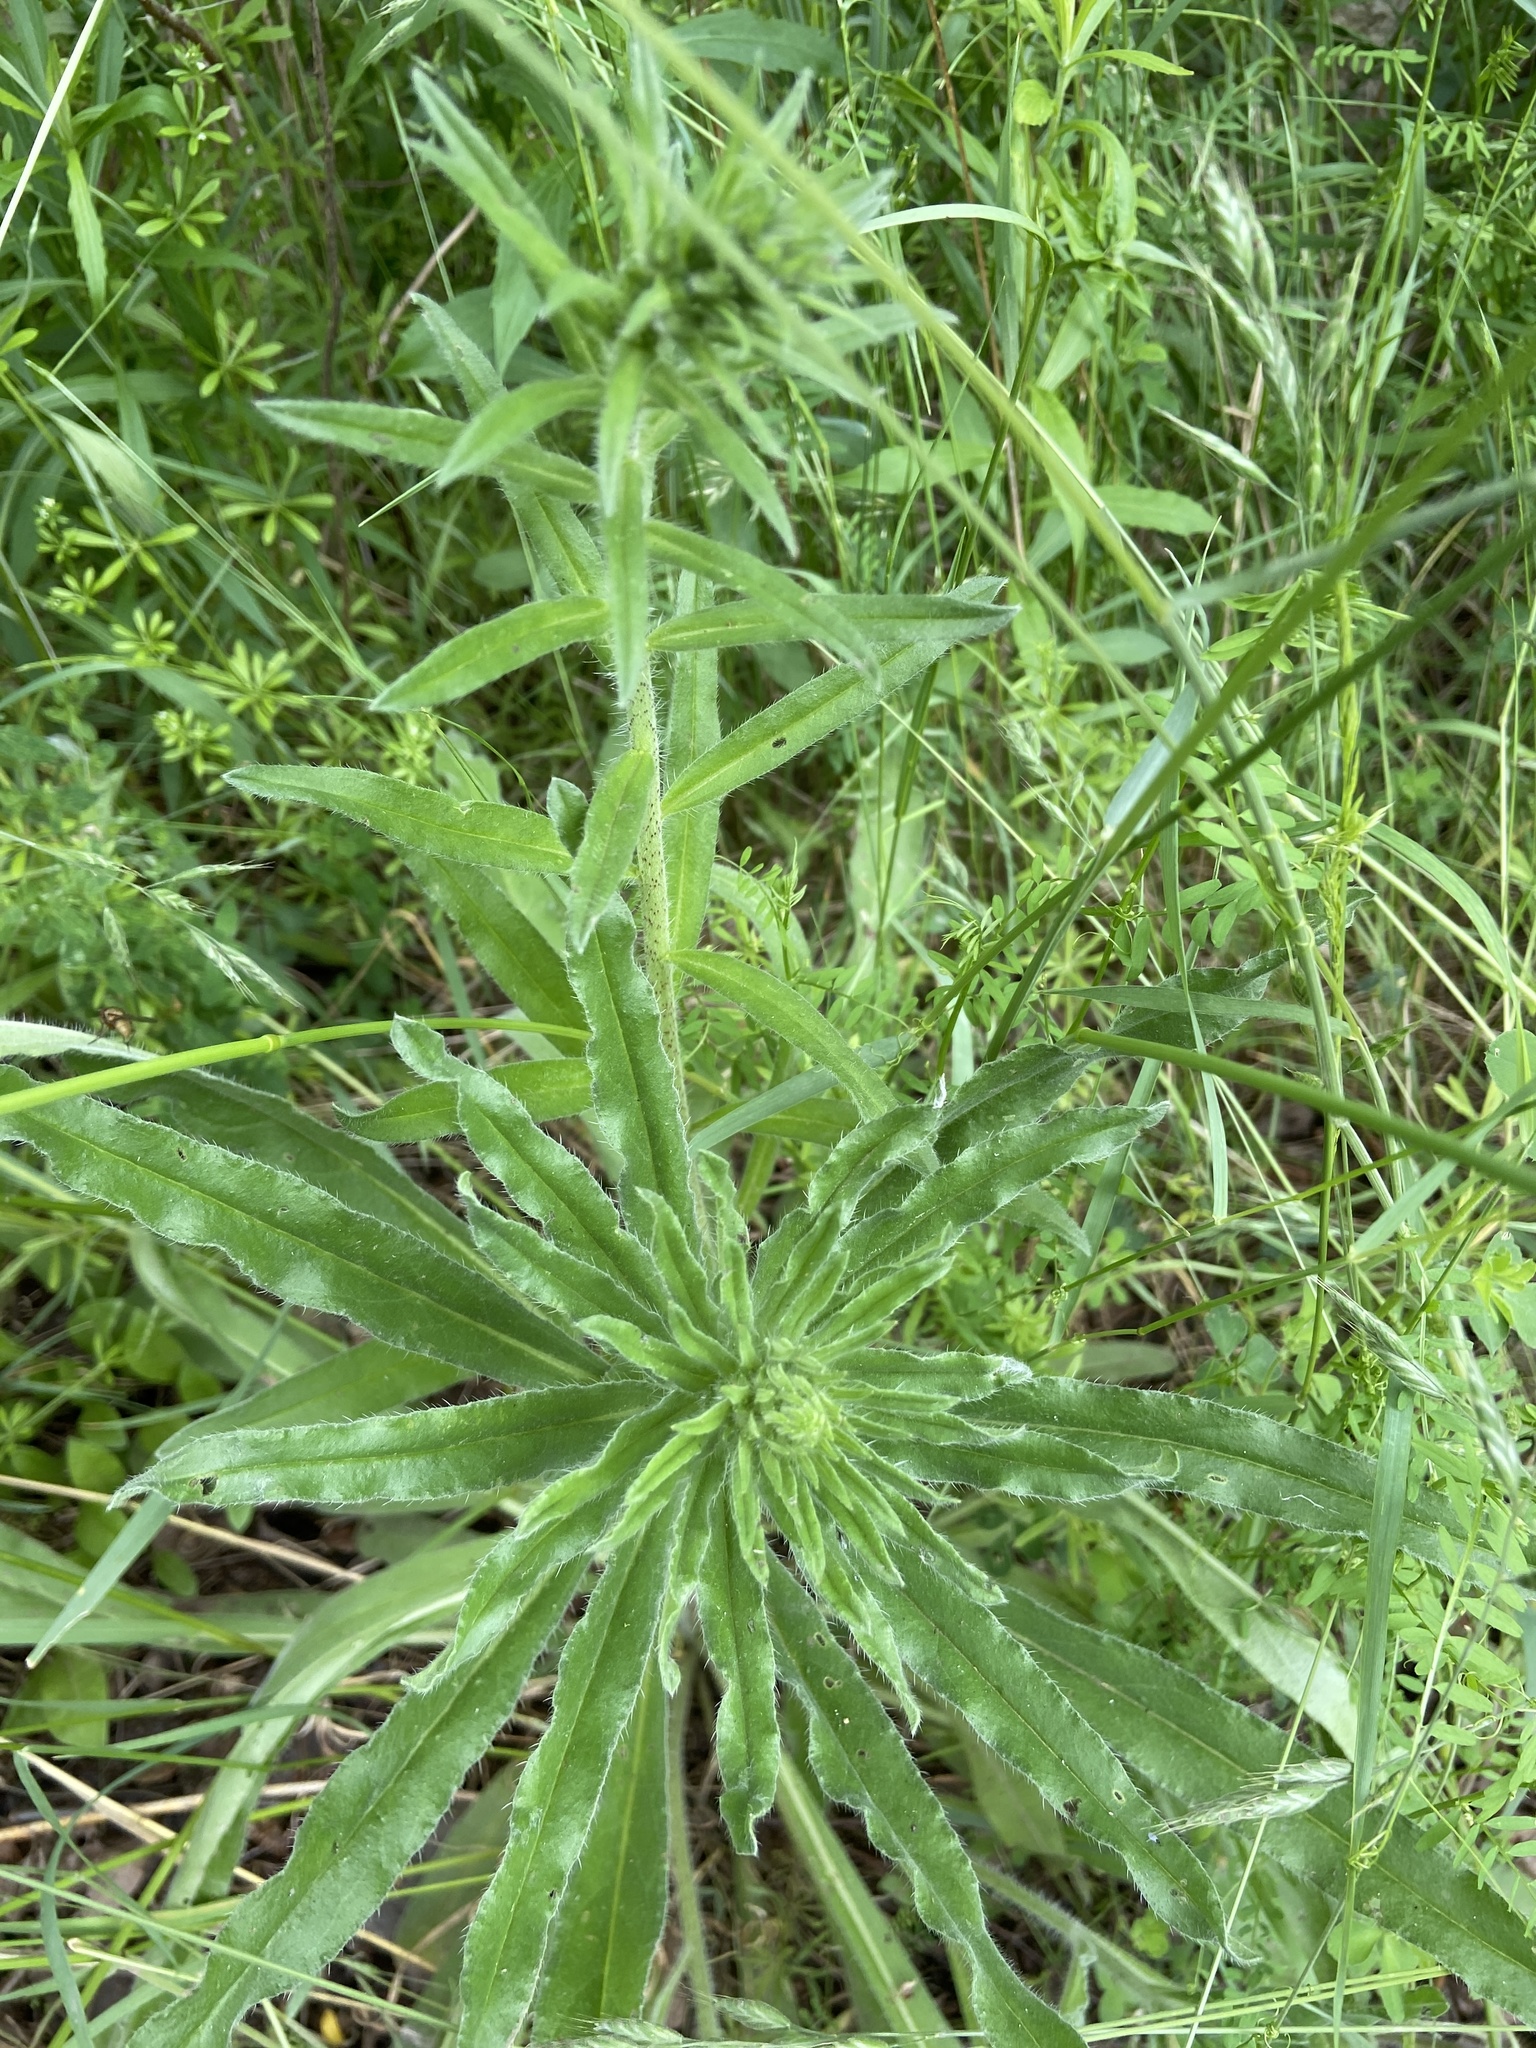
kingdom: Plantae
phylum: Tracheophyta
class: Magnoliopsida
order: Boraginales
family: Boraginaceae
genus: Echium
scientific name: Echium vulgare
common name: Common viper's bugloss
